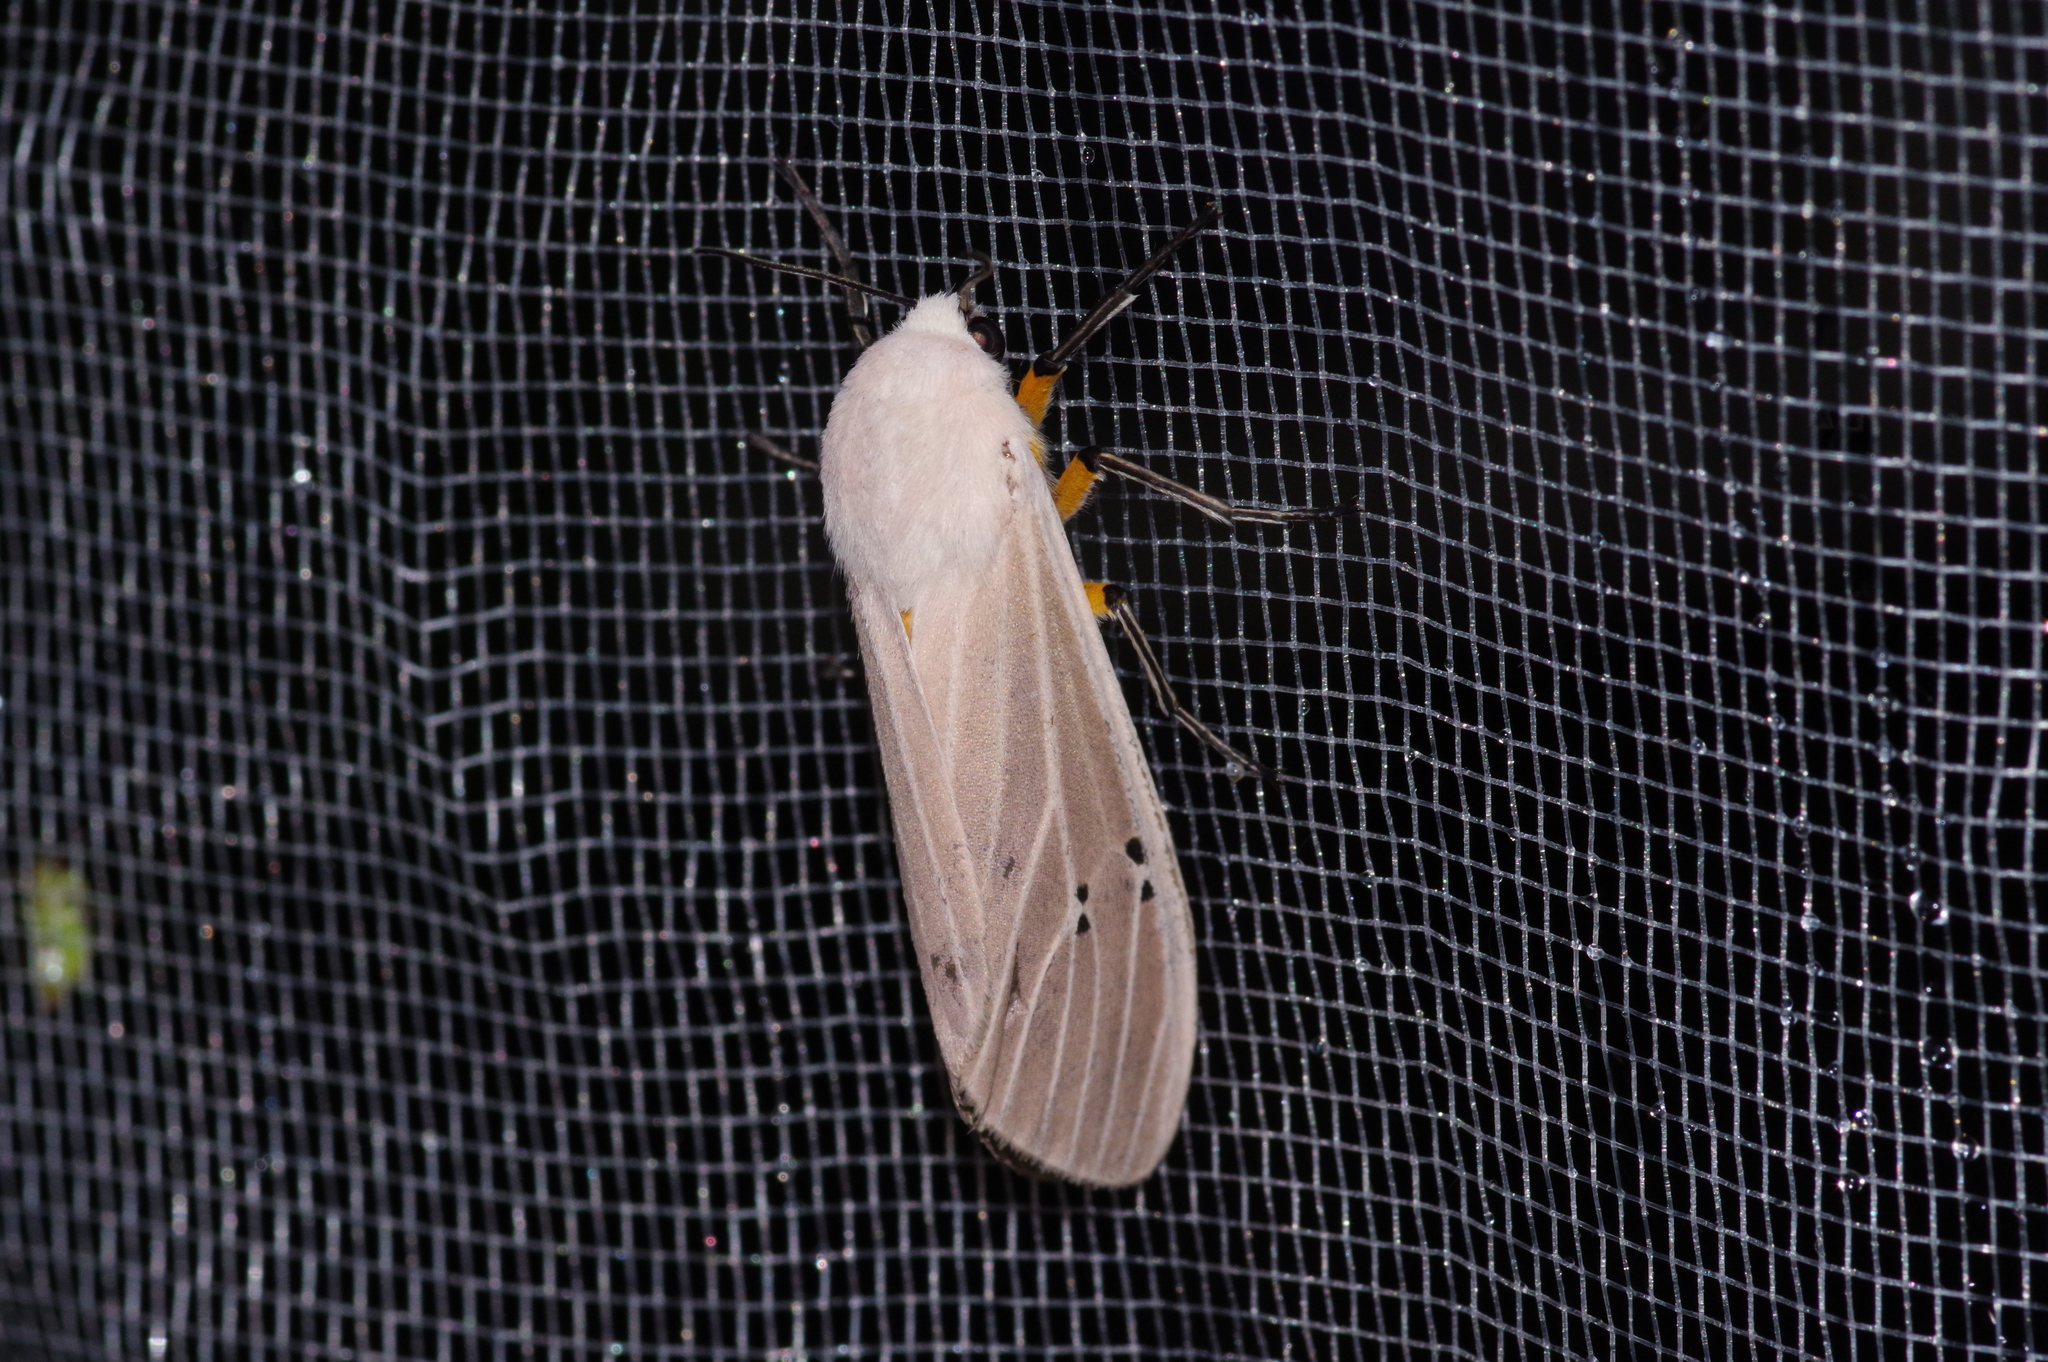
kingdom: Animalia
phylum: Arthropoda
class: Insecta
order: Lepidoptera
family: Erebidae
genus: Creatonotos
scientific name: Creatonotos transiens
